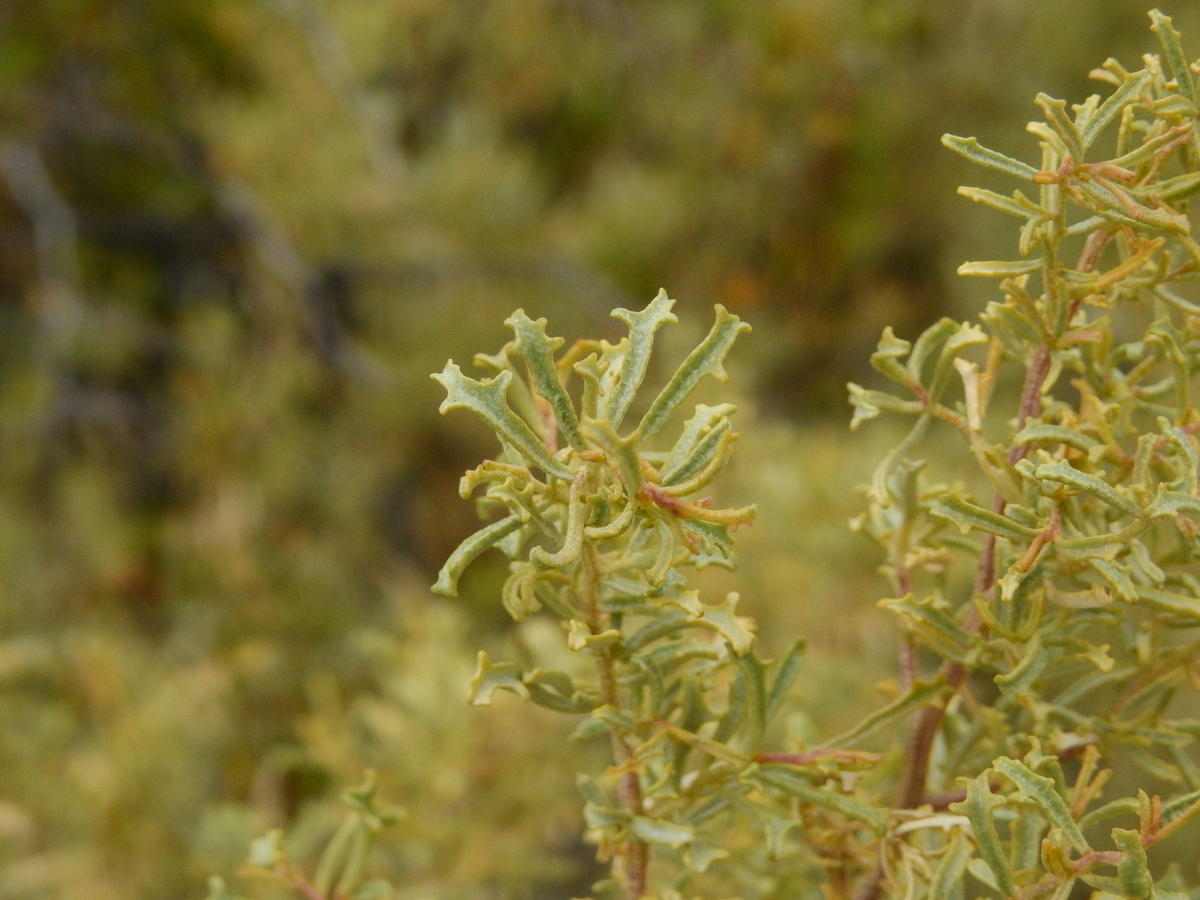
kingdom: Plantae
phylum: Tracheophyta
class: Magnoliopsida
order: Caryophyllales
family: Amaranthaceae
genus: Atriplex
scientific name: Atriplex lampa
